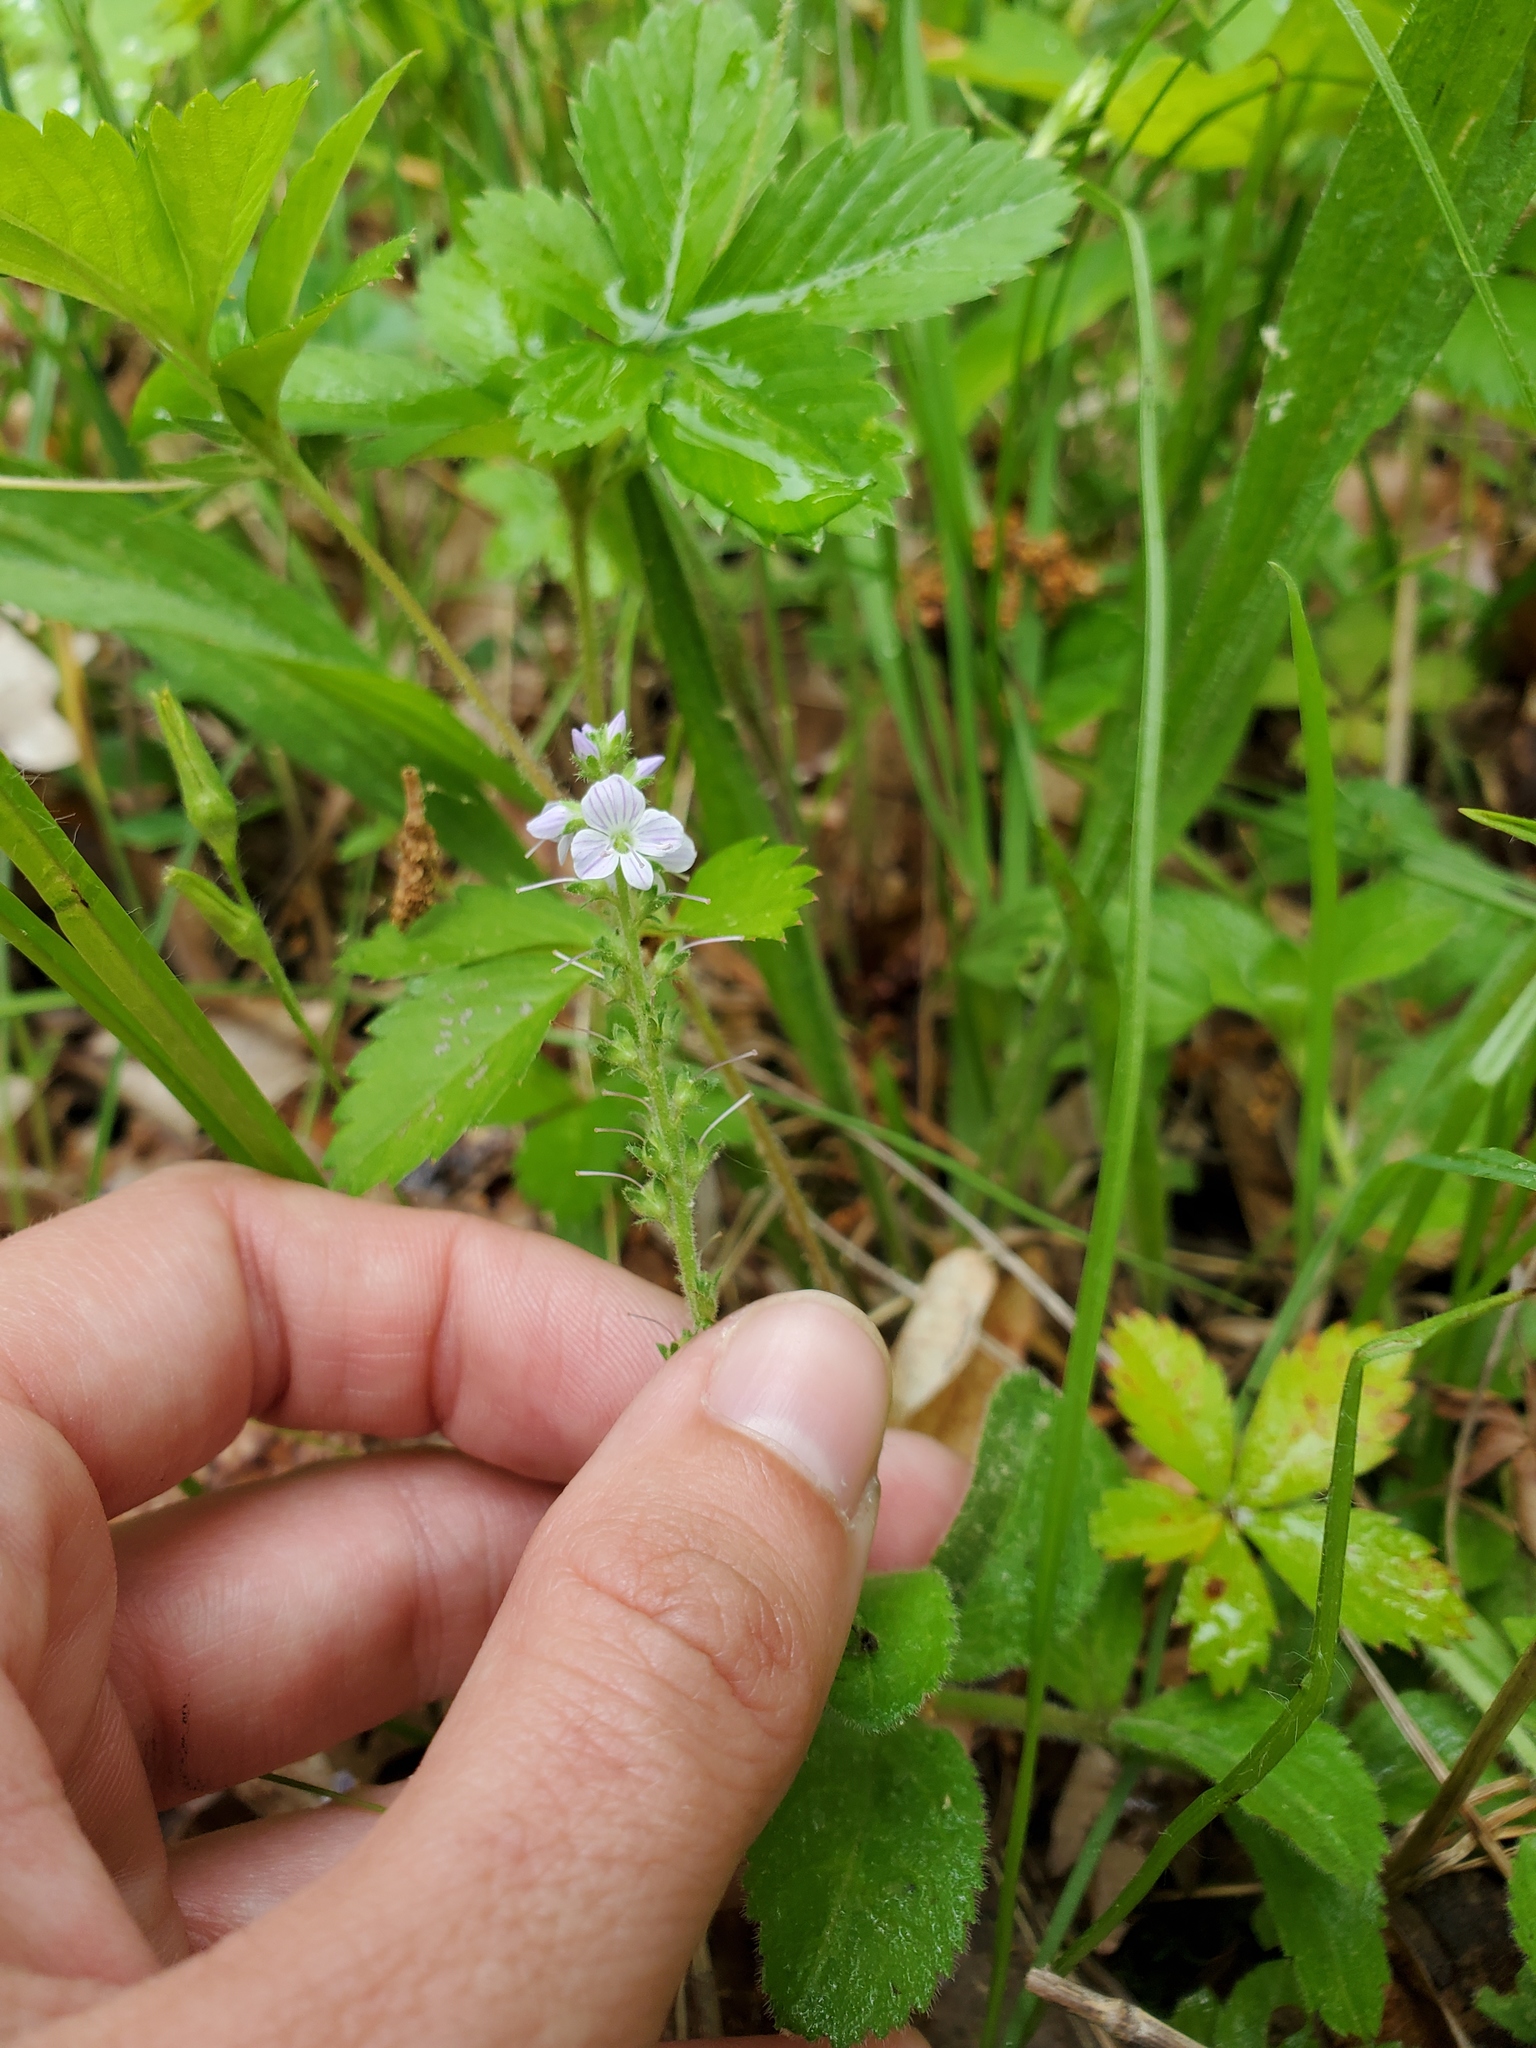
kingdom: Plantae
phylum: Tracheophyta
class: Magnoliopsida
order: Lamiales
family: Plantaginaceae
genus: Veronica
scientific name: Veronica officinalis
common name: Common speedwell
